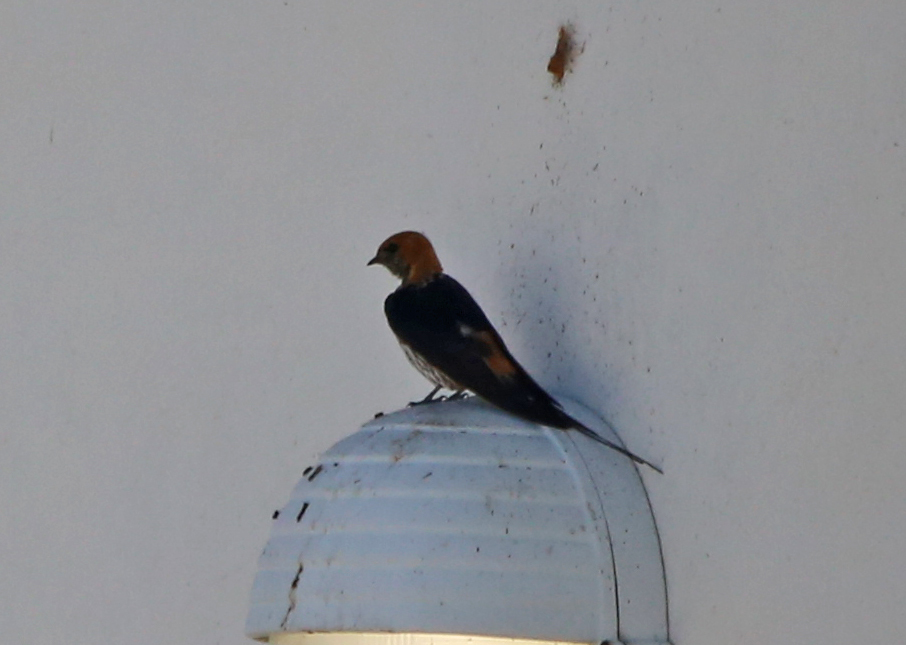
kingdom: Animalia
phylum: Chordata
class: Aves
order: Passeriformes
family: Hirundinidae
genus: Cecropis
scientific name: Cecropis abyssinica
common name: Lesser striped-swallow
